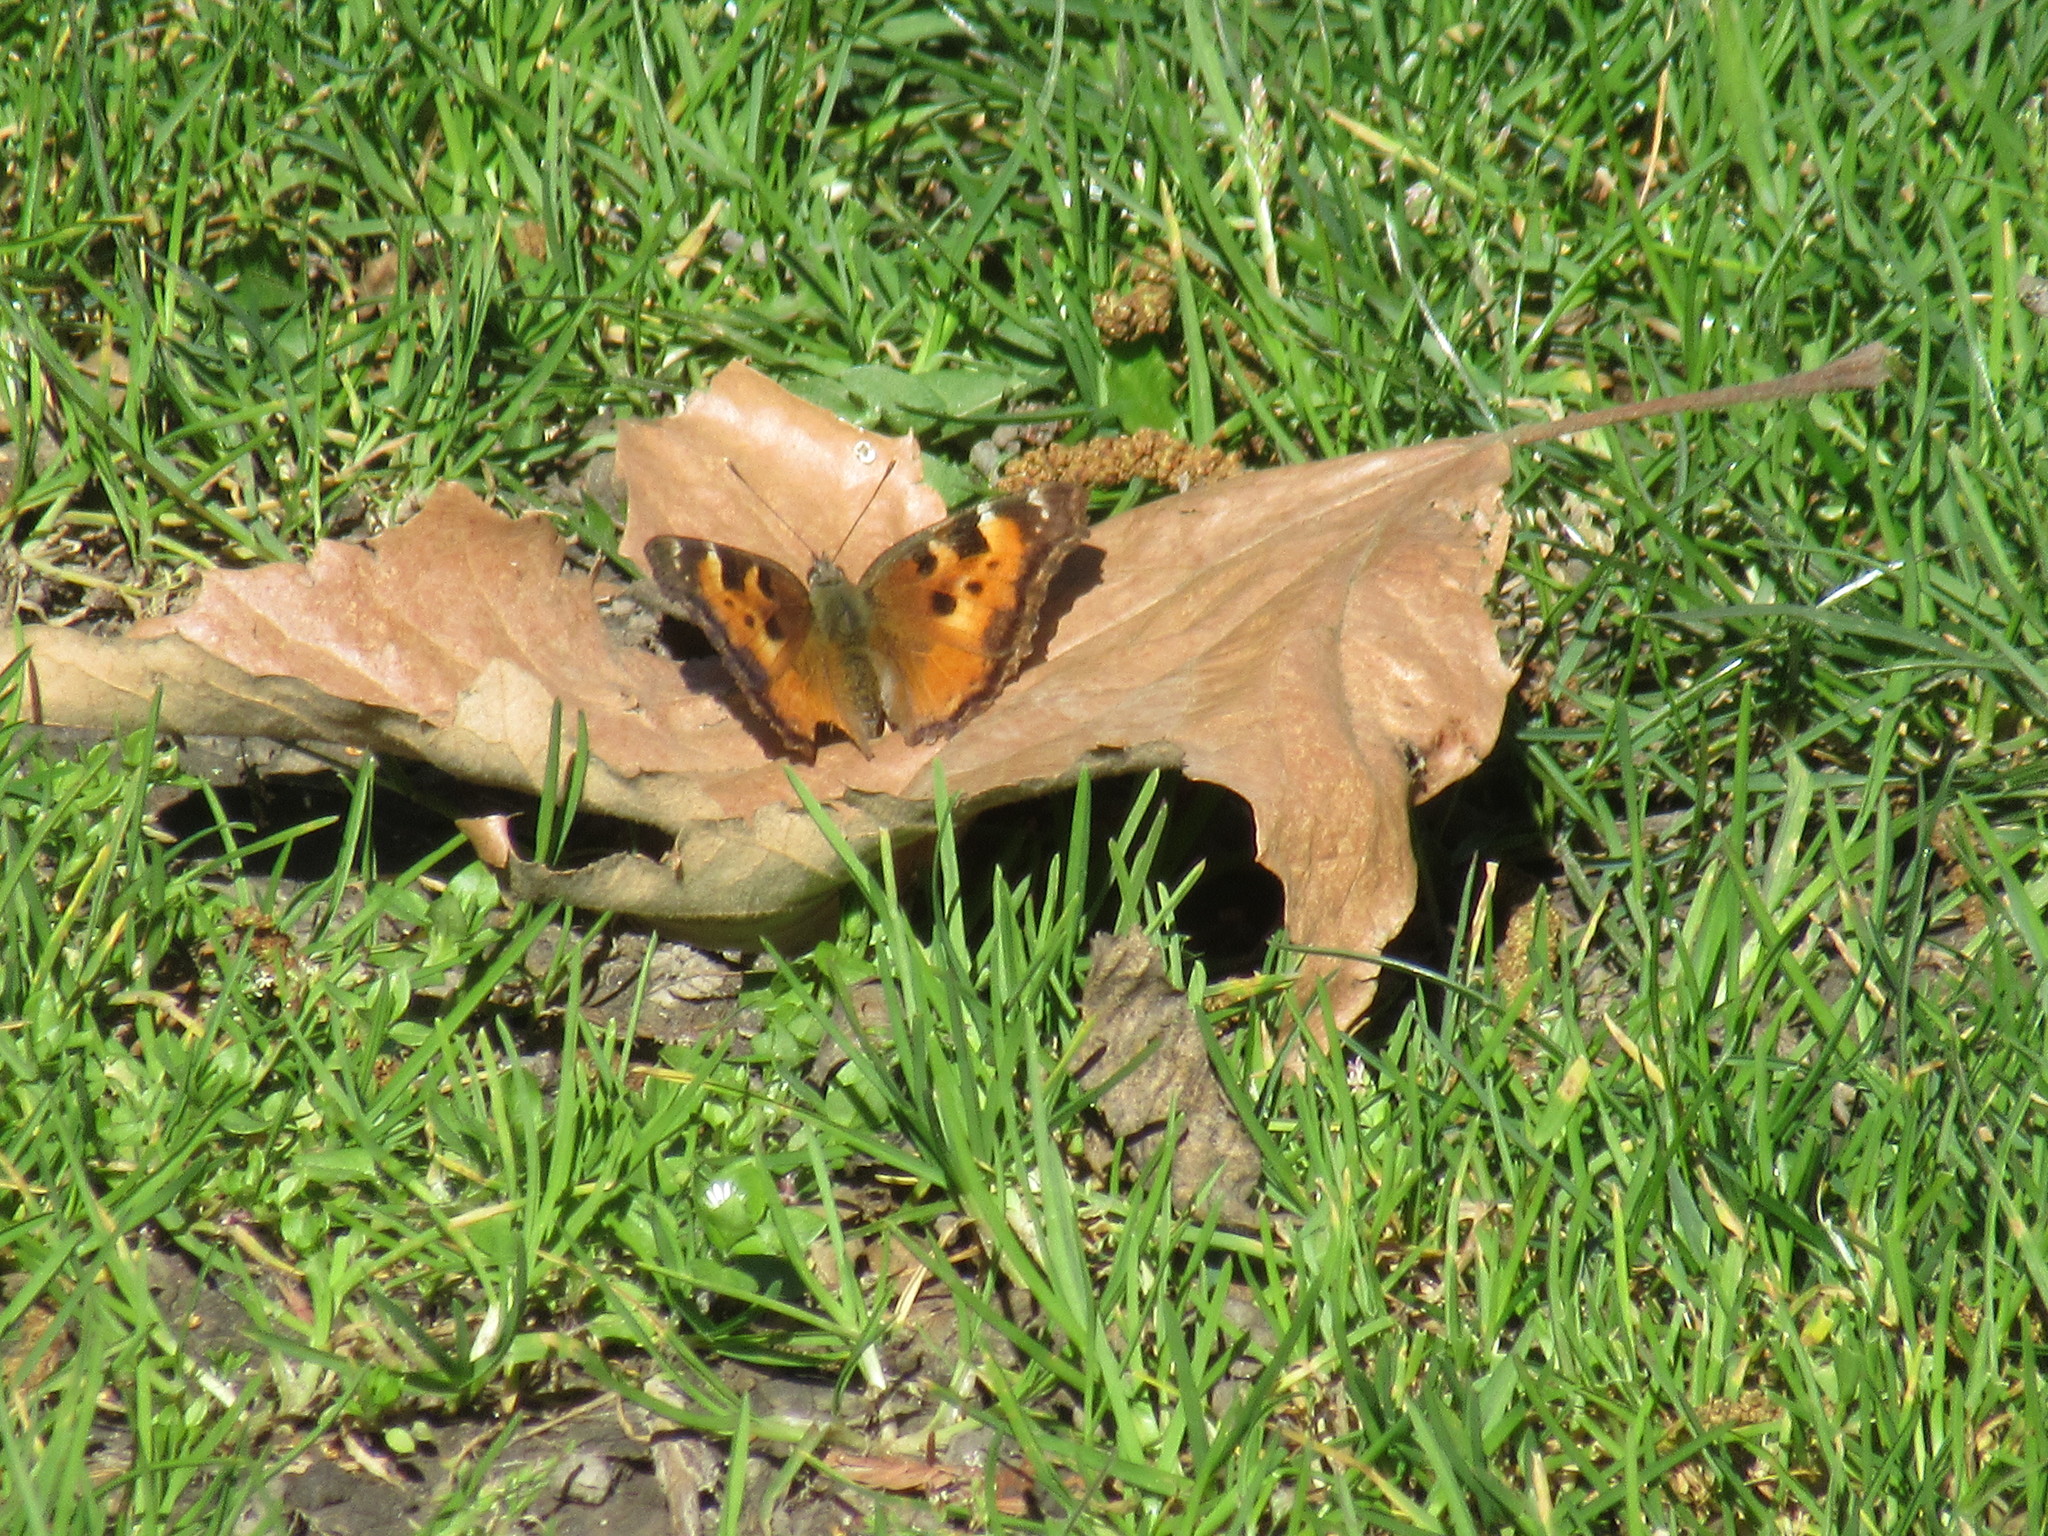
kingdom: Animalia
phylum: Arthropoda
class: Insecta
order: Lepidoptera
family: Nymphalidae
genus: Nymphalis
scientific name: Nymphalis californica
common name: California tortoiseshell
